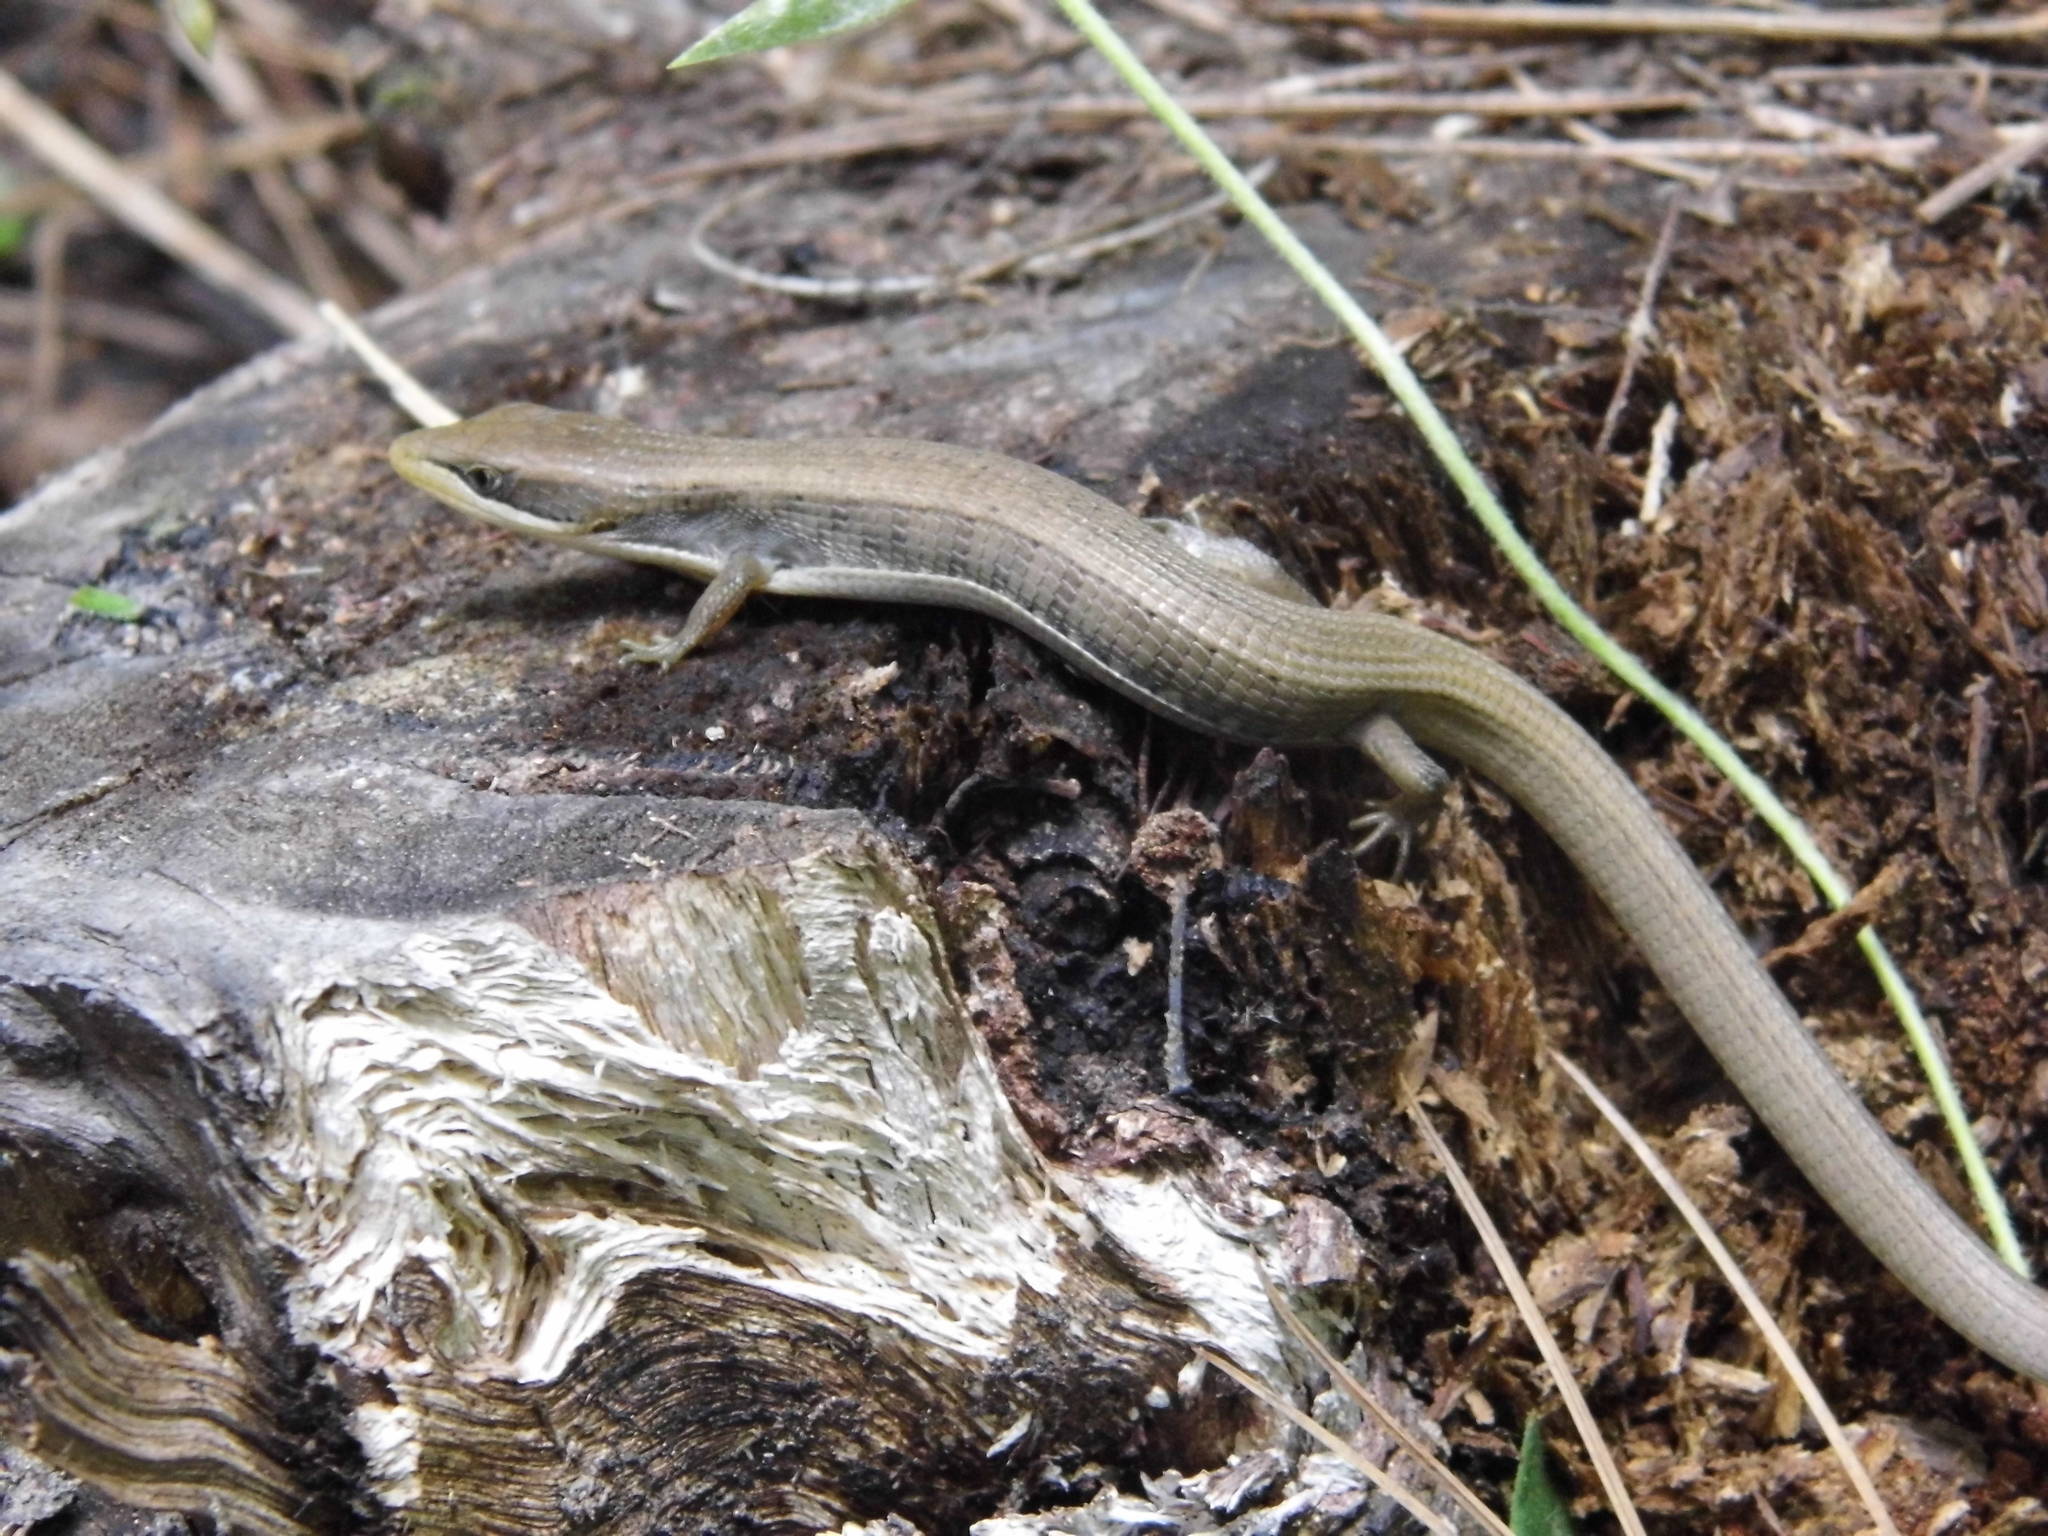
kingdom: Animalia
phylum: Chordata
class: Squamata
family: Anguidae
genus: Gerrhonotus
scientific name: Gerrhonotus liocephalus
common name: Texas alligator lizard
